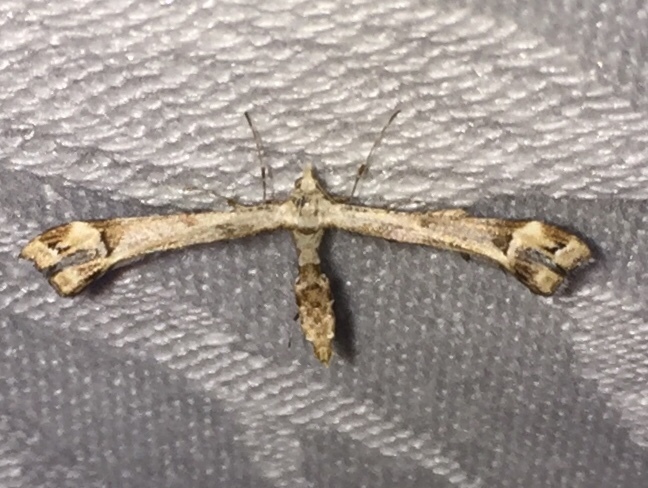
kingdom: Animalia
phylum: Arthropoda
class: Insecta
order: Lepidoptera
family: Pterophoridae
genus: Platyptilia
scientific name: Platyptilia carduidactylus
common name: Artichoke plume moth
